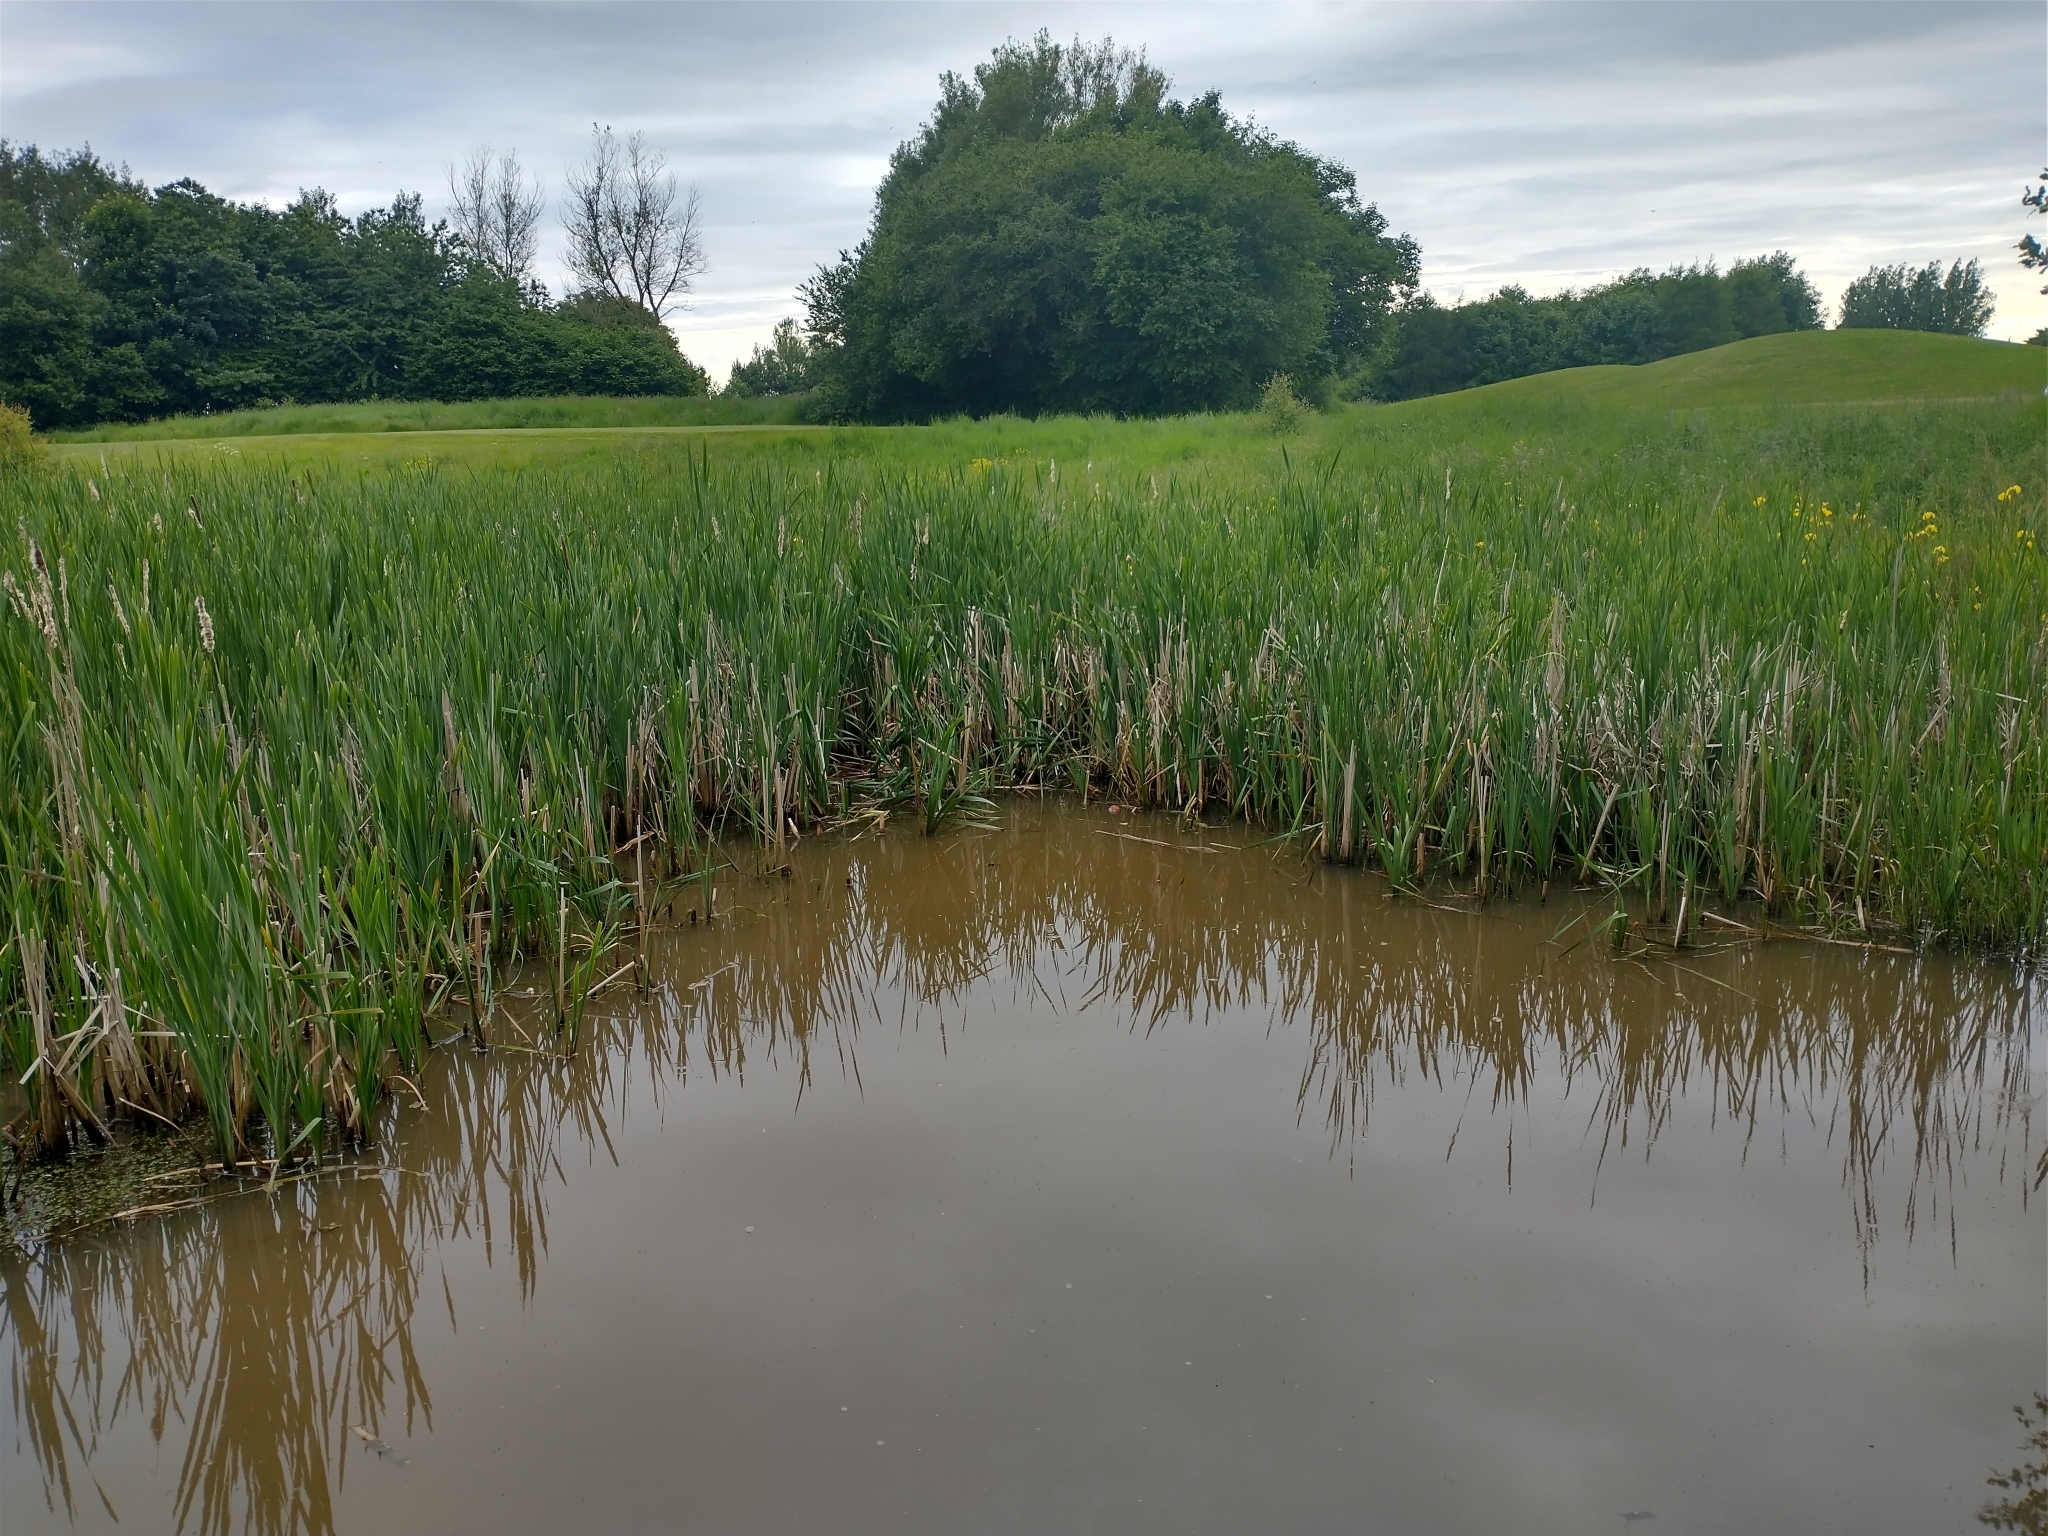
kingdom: Plantae
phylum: Tracheophyta
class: Liliopsida
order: Poales
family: Typhaceae
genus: Typha
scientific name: Typha latifolia
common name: Broadleaf cattail
